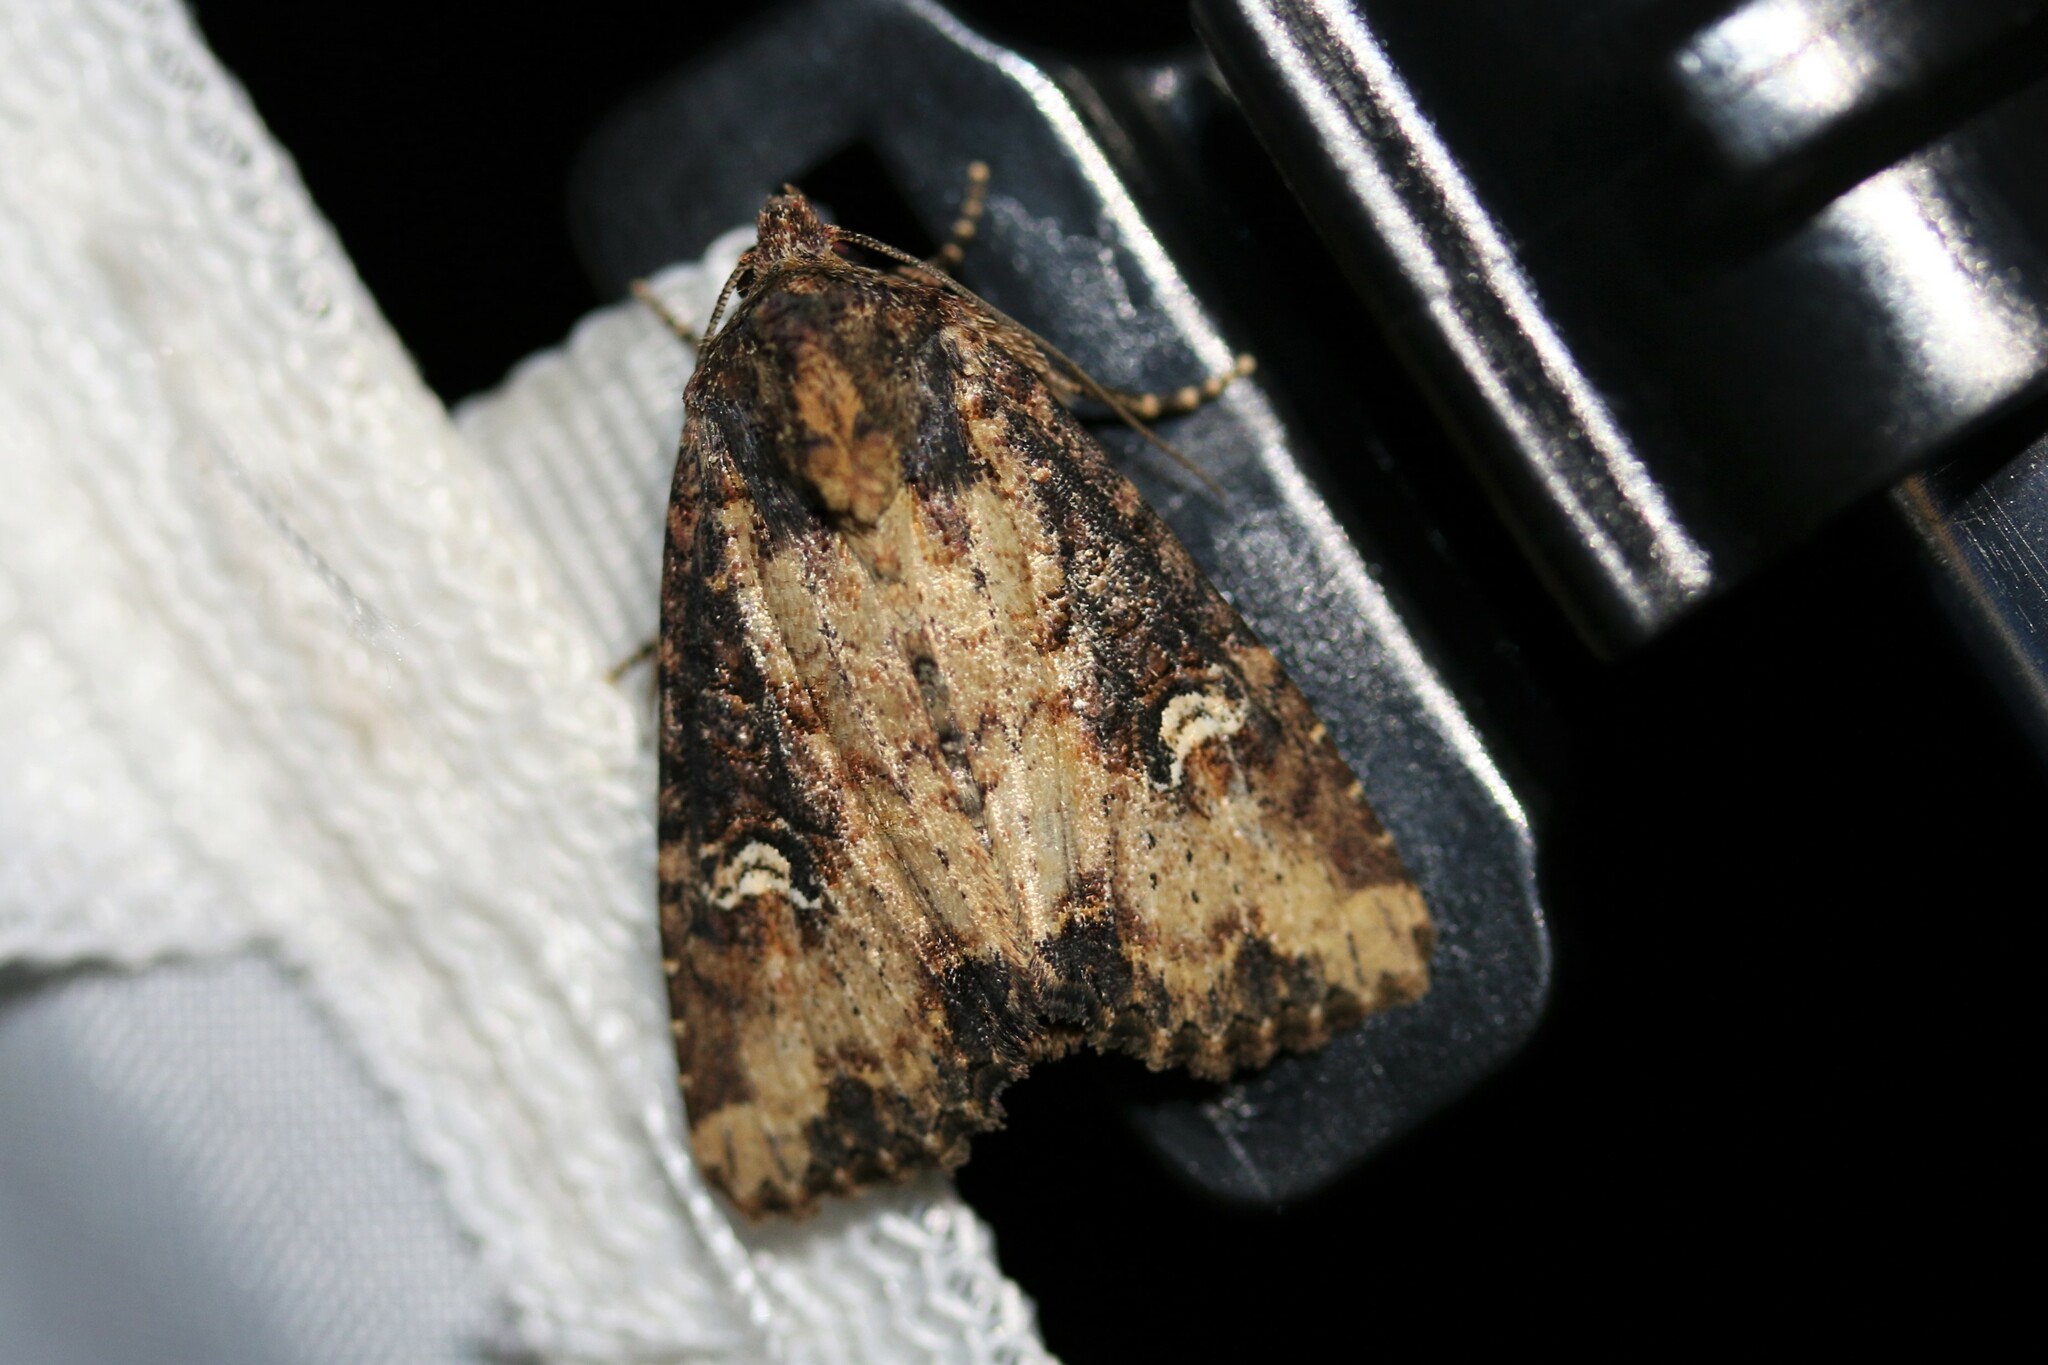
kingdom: Animalia
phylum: Arthropoda
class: Insecta
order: Lepidoptera
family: Noctuidae
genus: Mesapamea
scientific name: Mesapamea
